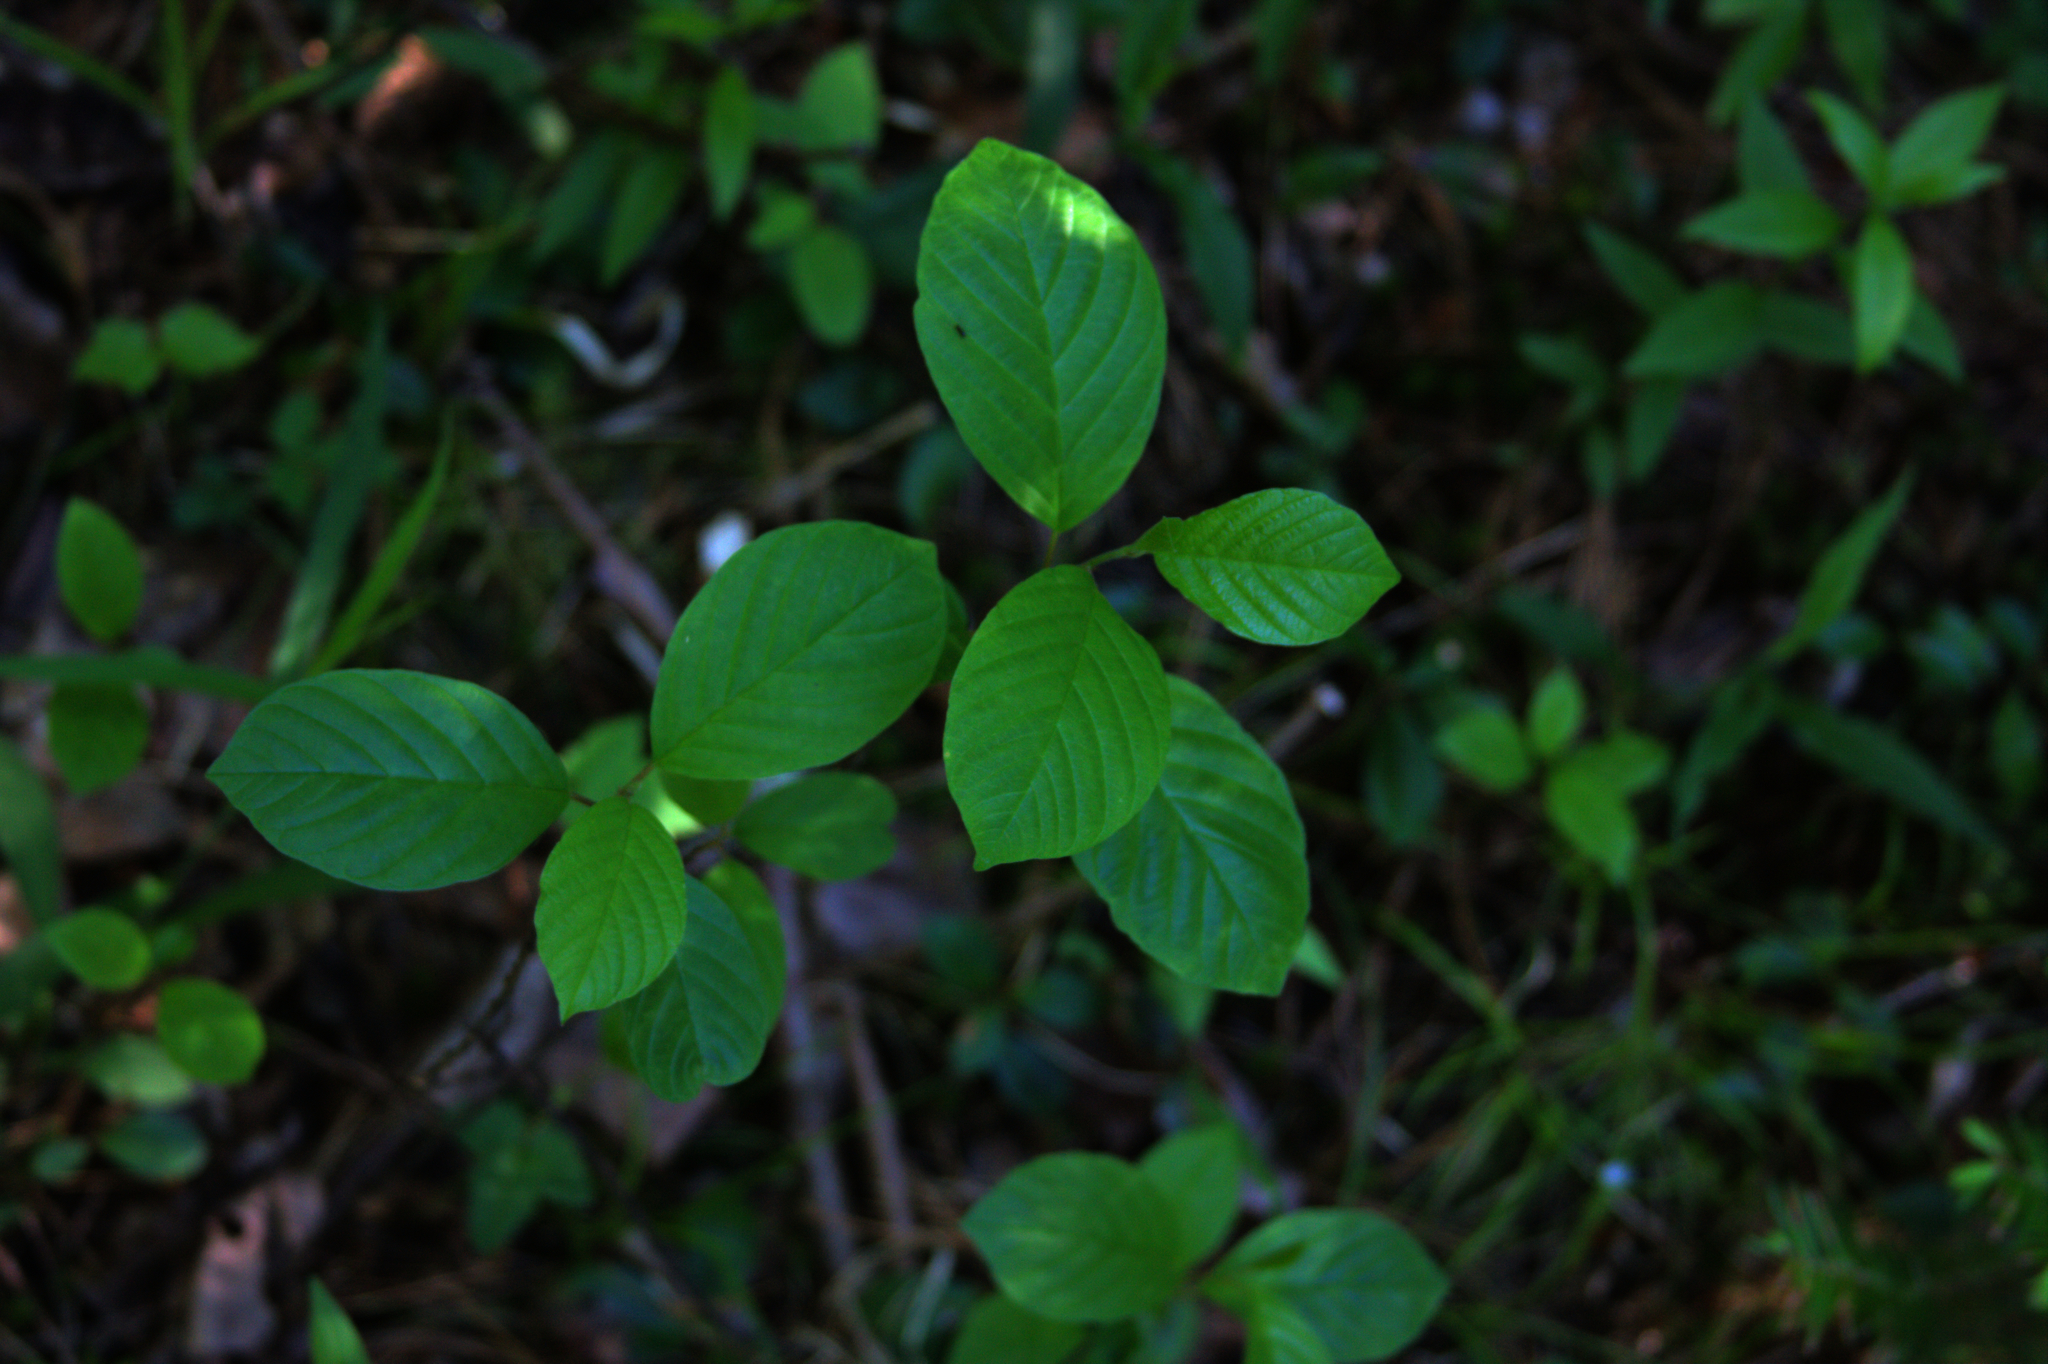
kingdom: Plantae
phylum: Tracheophyta
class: Magnoliopsida
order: Rosales
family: Rhamnaceae
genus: Frangula
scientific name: Frangula alnus
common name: Alder buckthorn
